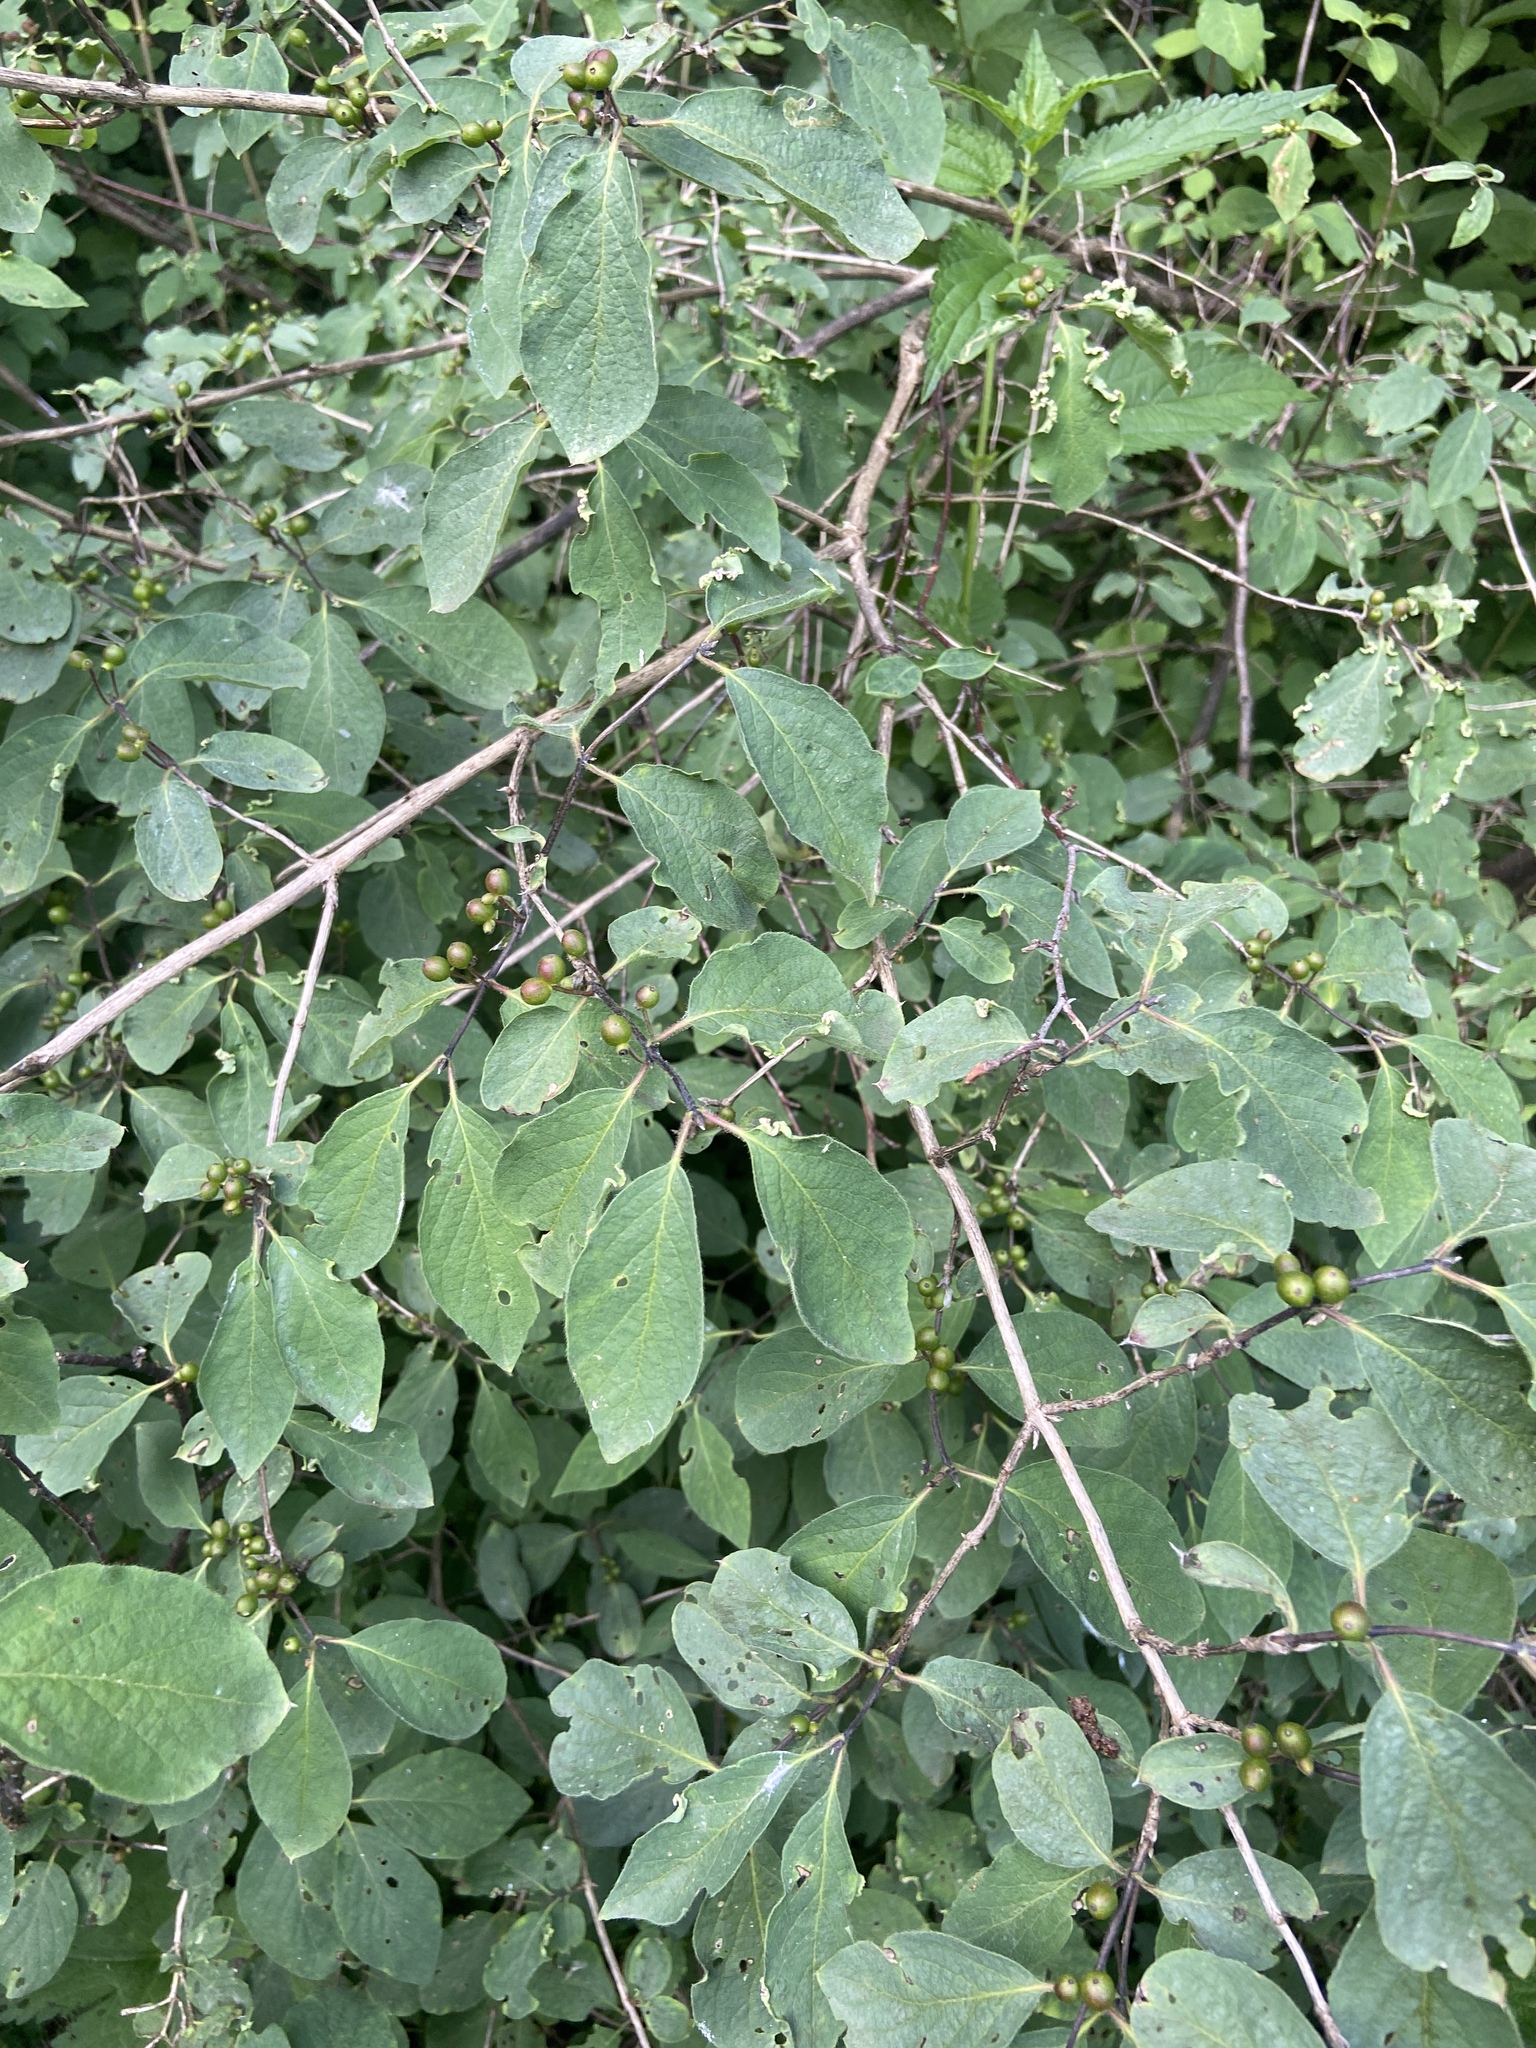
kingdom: Plantae
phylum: Tracheophyta
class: Magnoliopsida
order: Dipsacales
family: Caprifoliaceae
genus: Lonicera
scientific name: Lonicera xylosteum
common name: Fly honeysuckle
